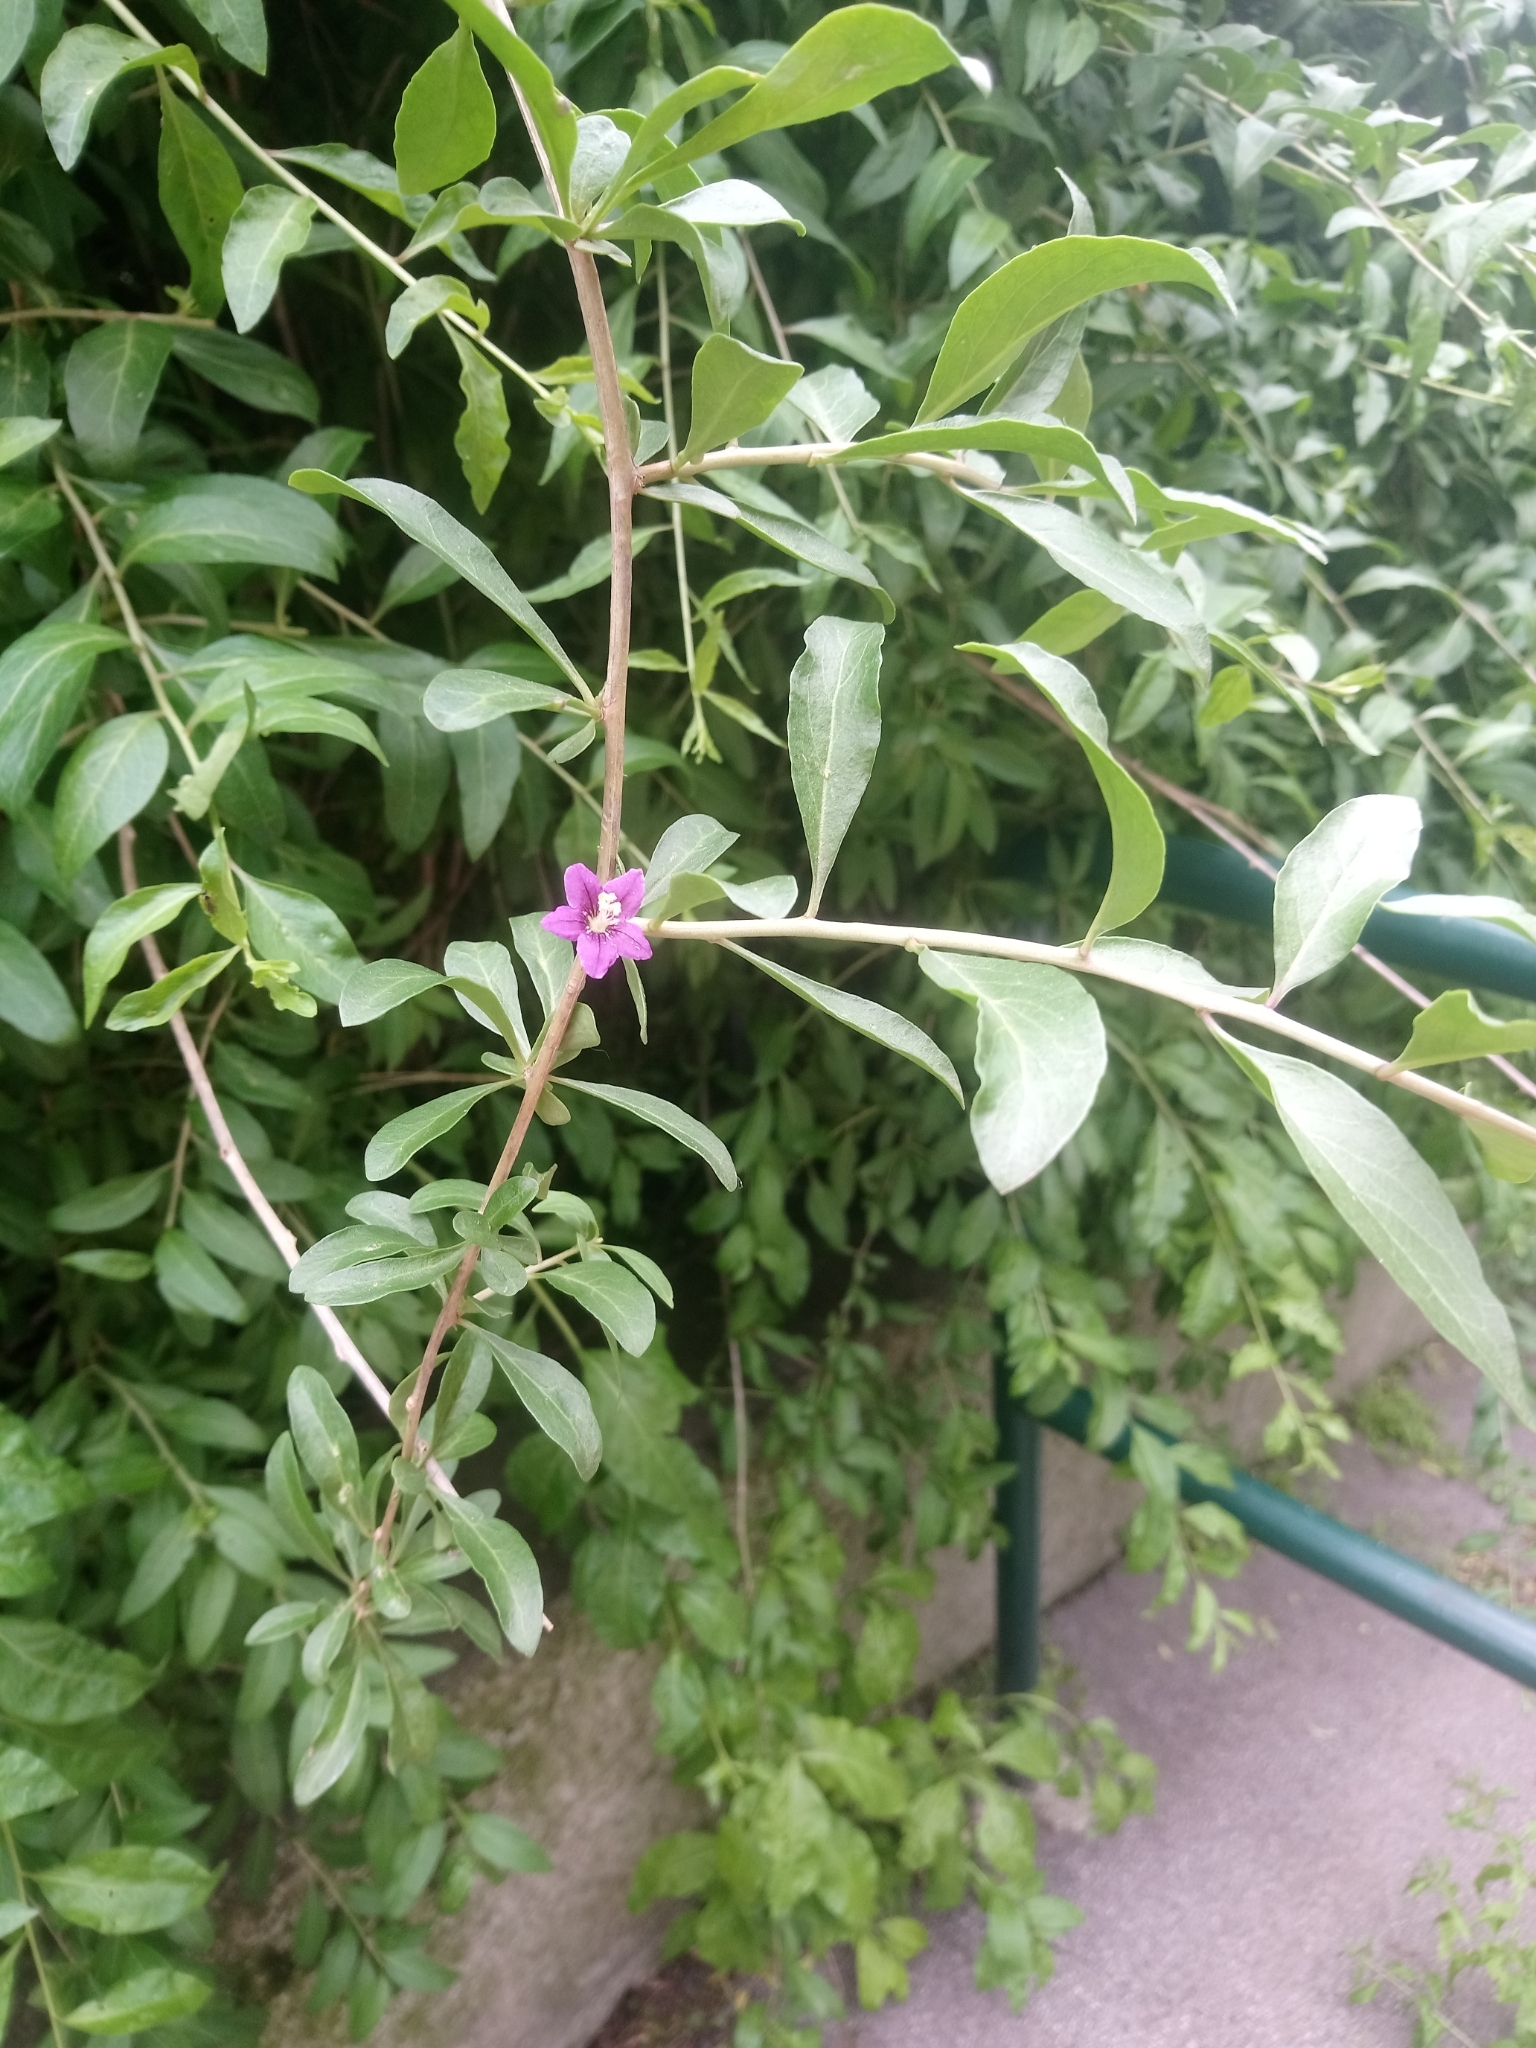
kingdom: Plantae
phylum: Tracheophyta
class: Magnoliopsida
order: Solanales
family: Solanaceae
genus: Lycium
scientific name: Lycium barbarum
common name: Duke of argyll's teaplant
